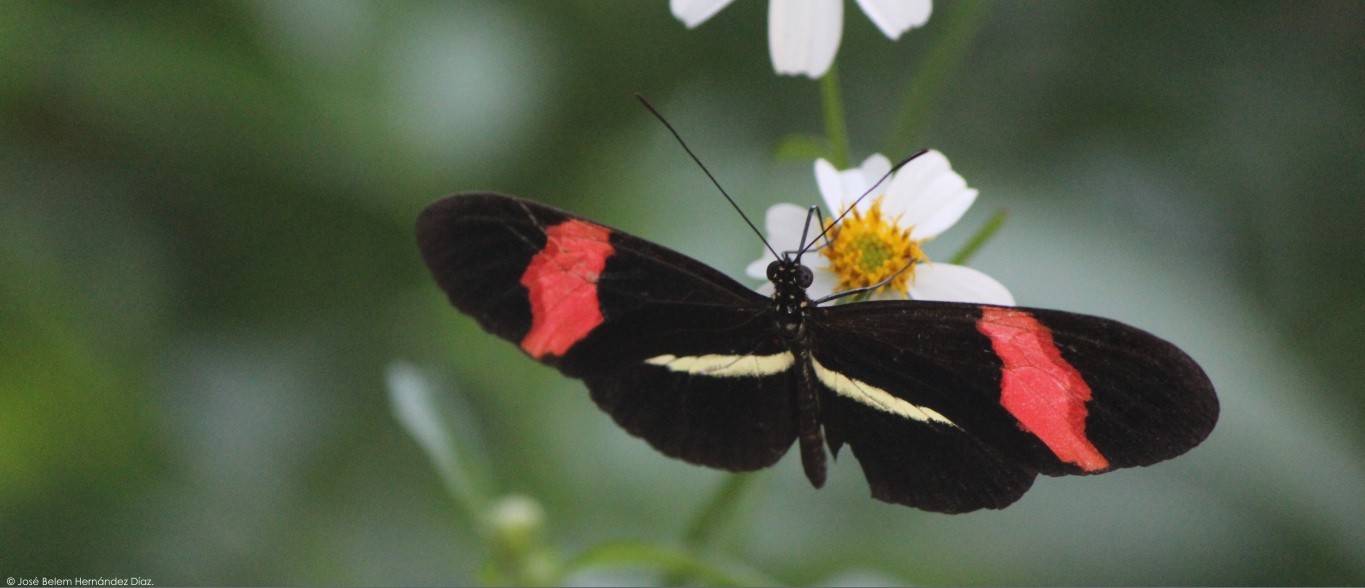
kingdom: Animalia
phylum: Arthropoda
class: Insecta
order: Lepidoptera
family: Nymphalidae
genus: Tirumala
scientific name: Tirumala petiverana
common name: Blue monarch
